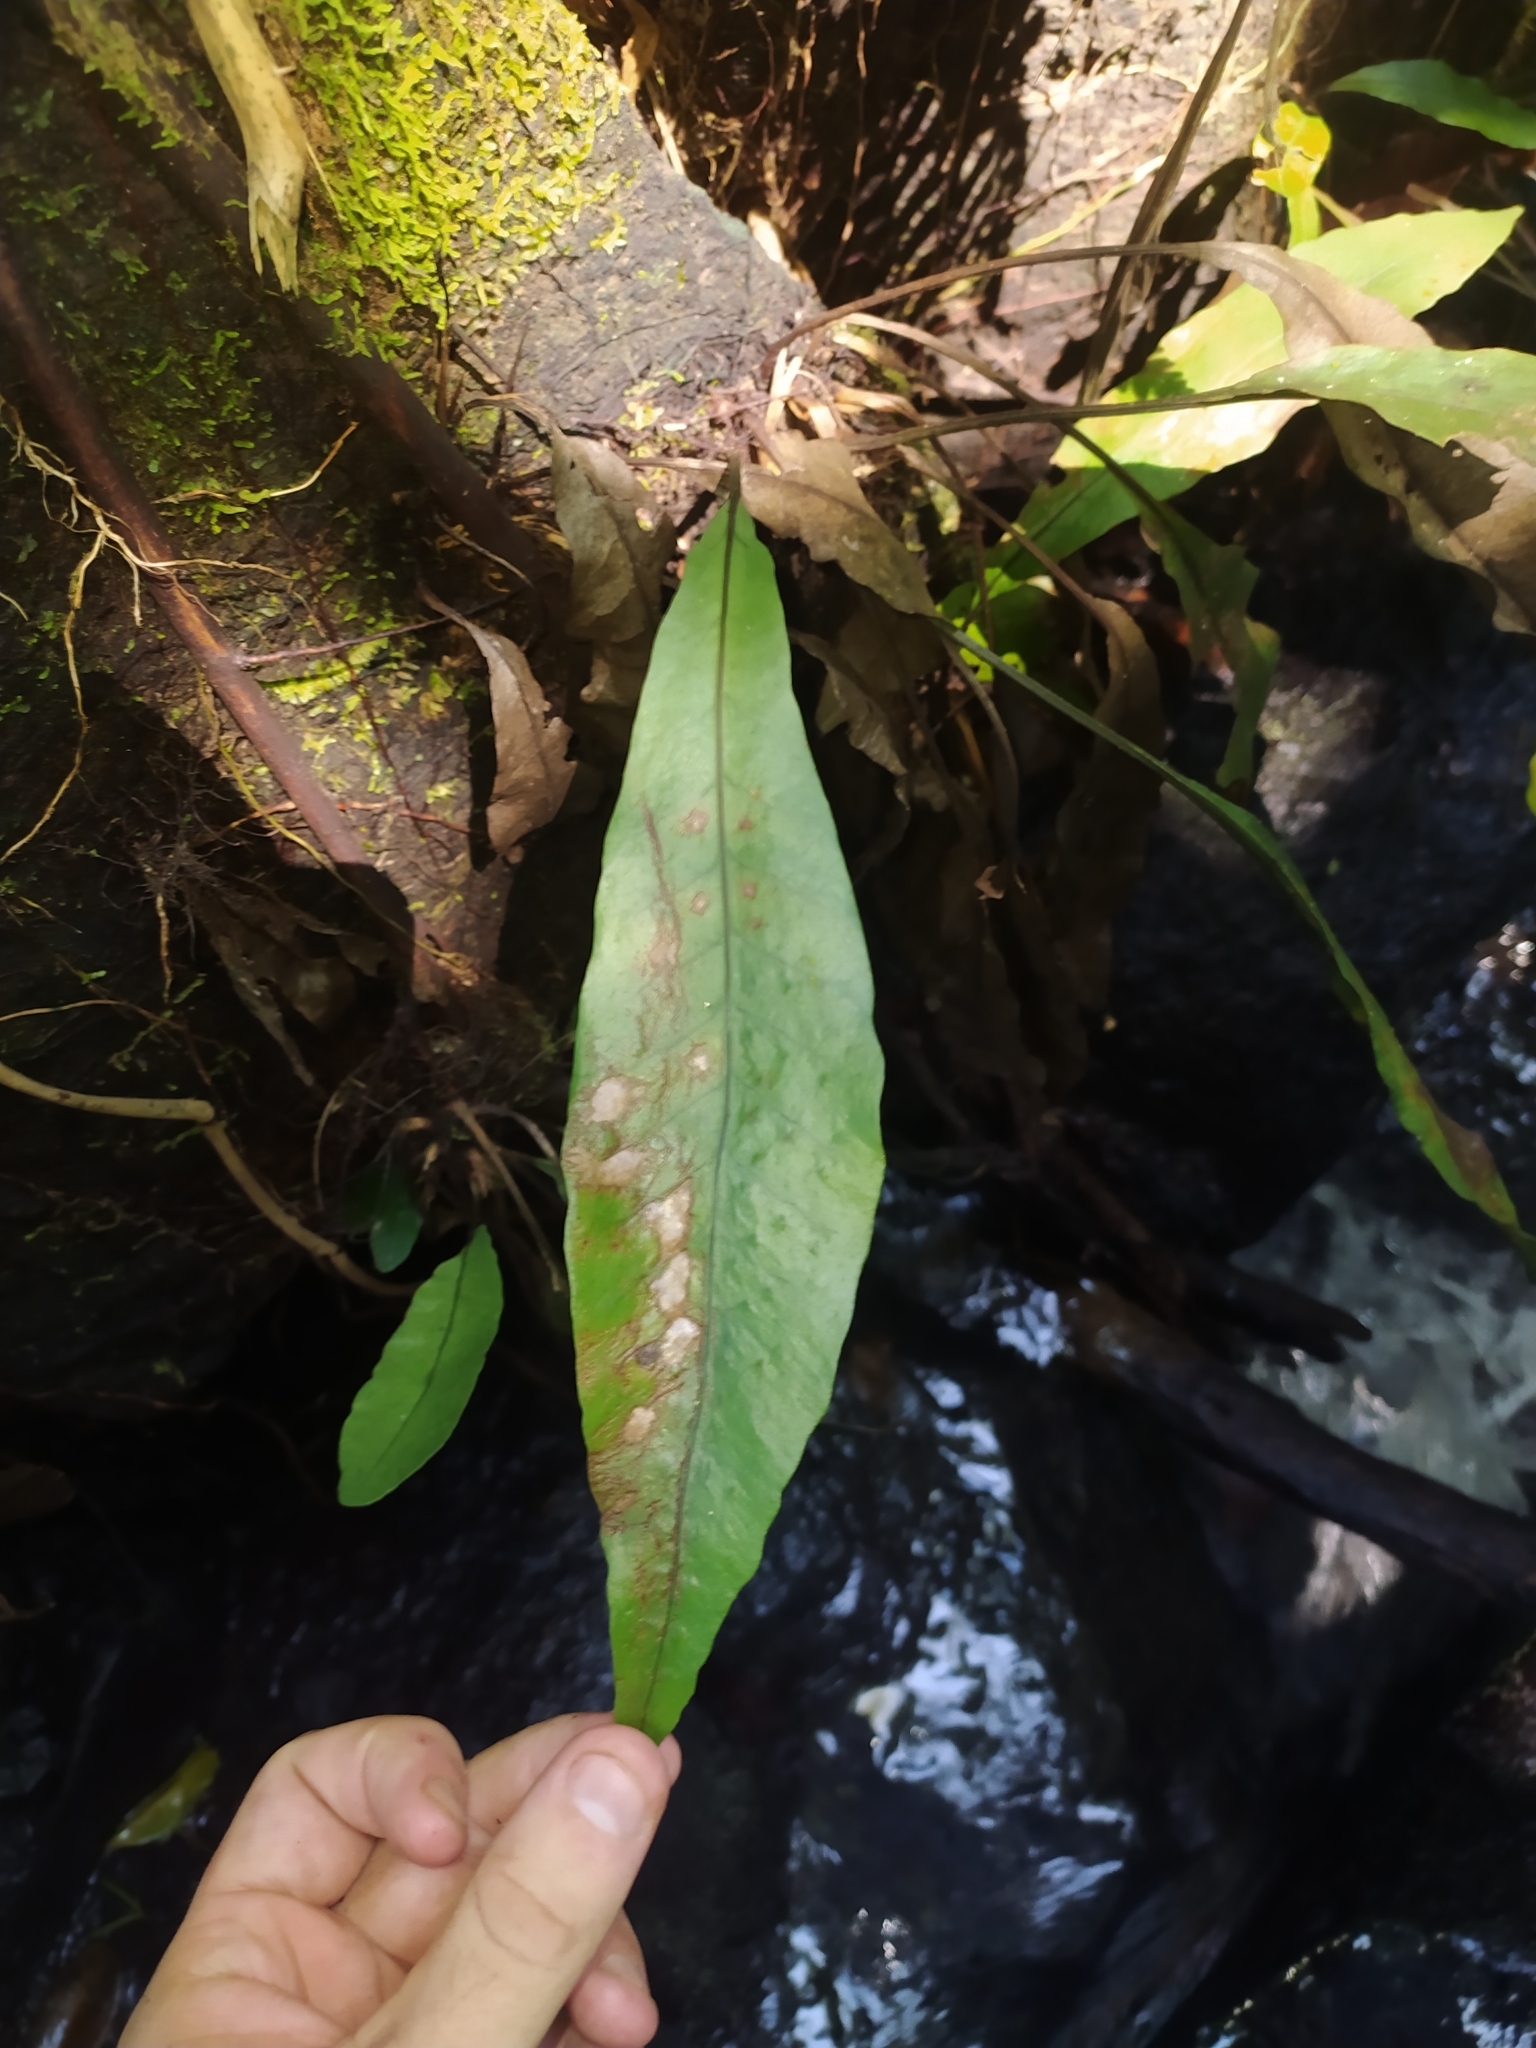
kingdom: Plantae
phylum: Tracheophyta
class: Polypodiopsida
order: Polypodiales
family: Lomariopsidaceae
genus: Dracoglossum
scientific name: Dracoglossum sinuatum
